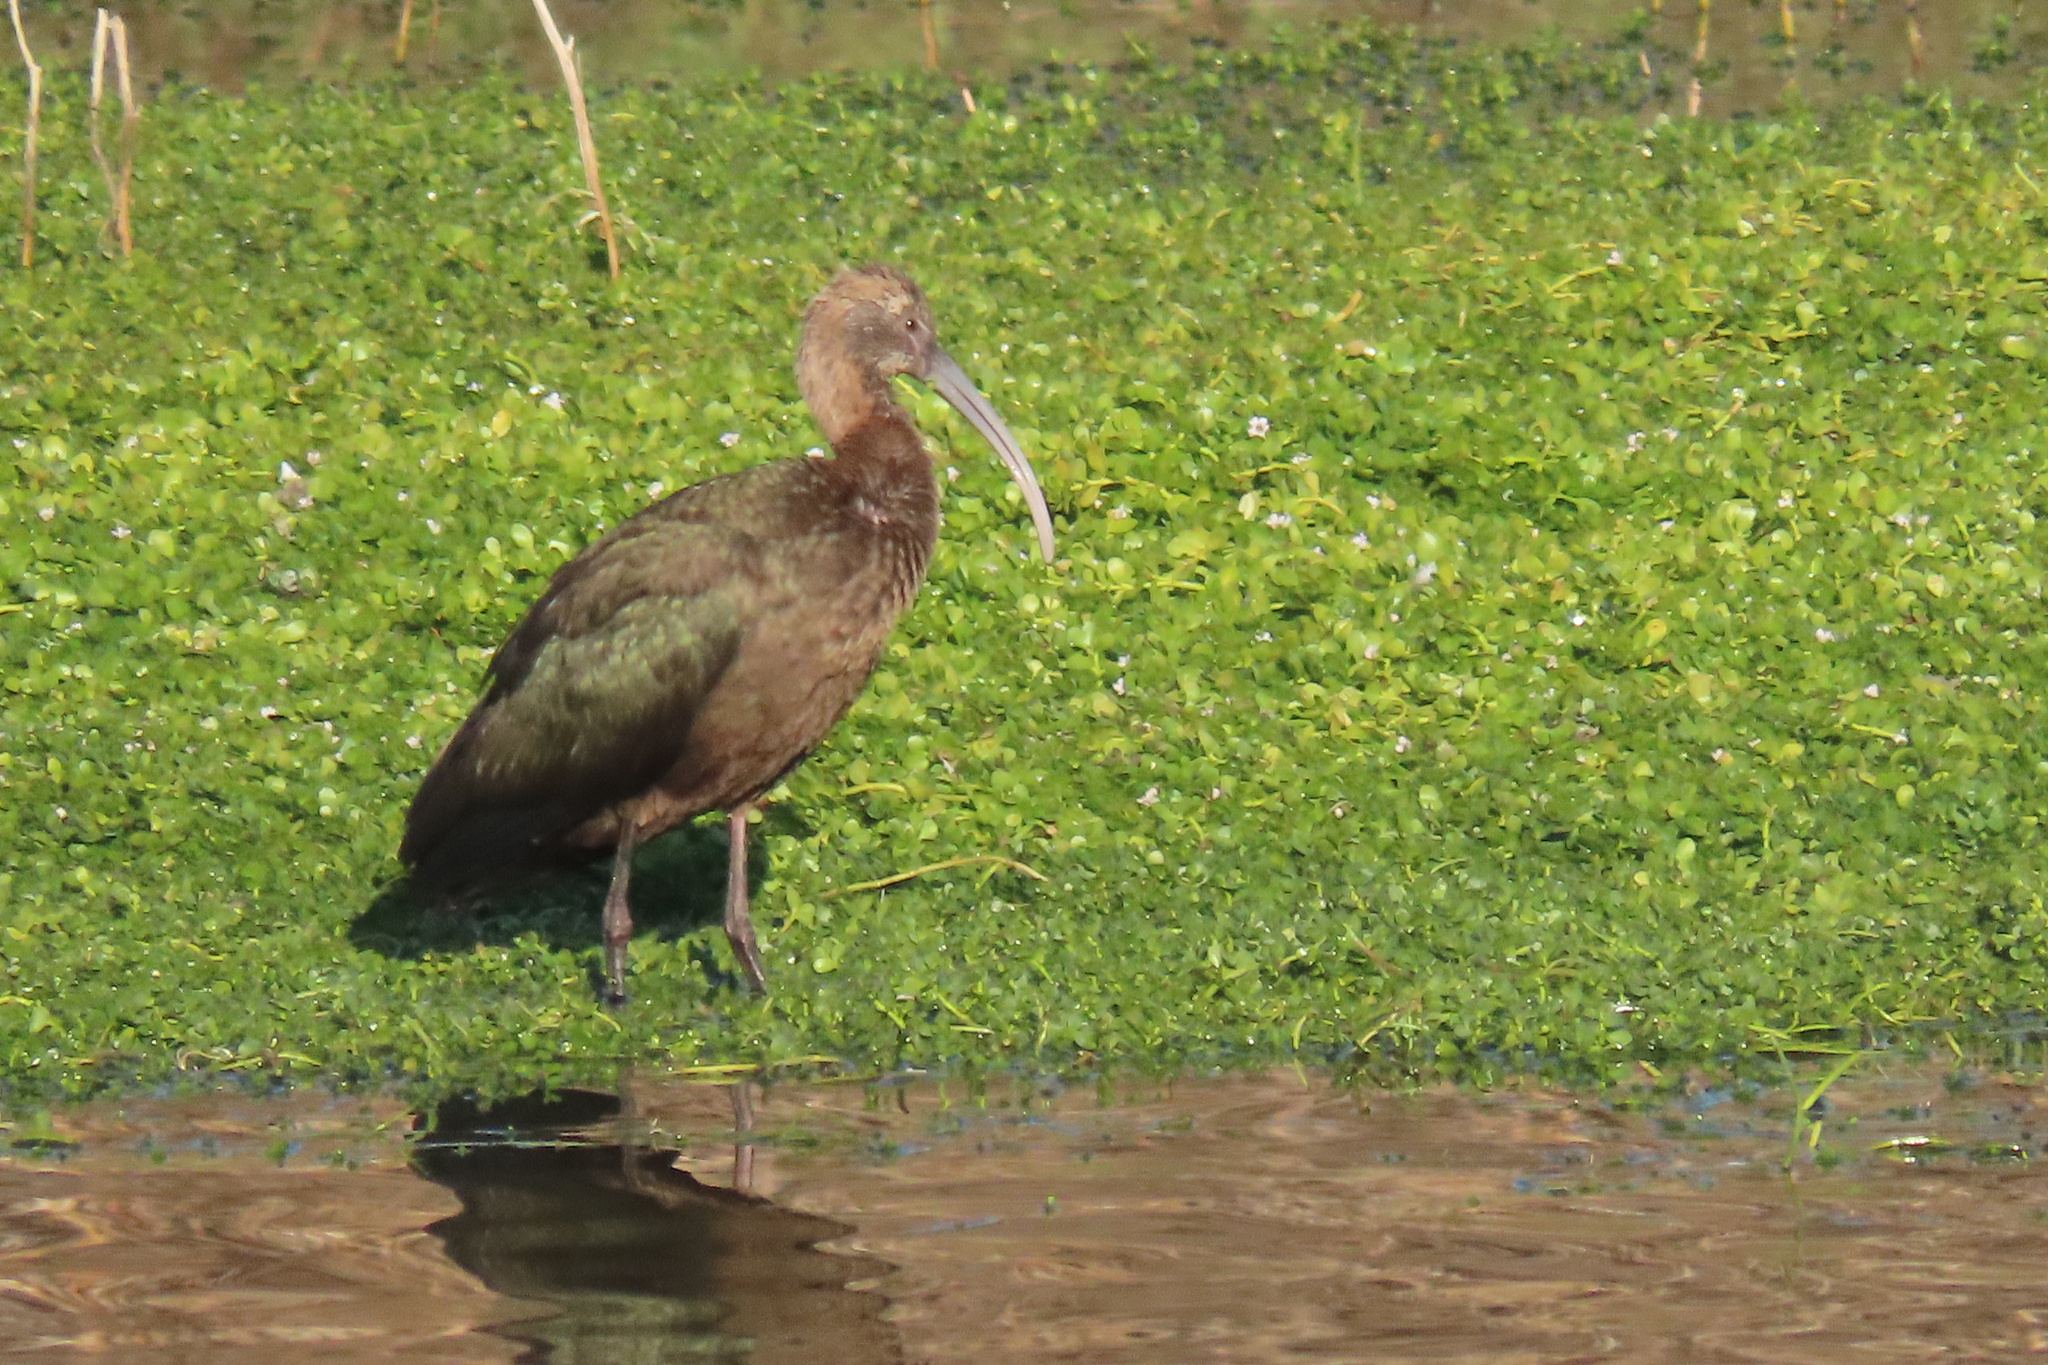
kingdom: Animalia
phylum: Chordata
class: Aves
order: Pelecaniformes
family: Threskiornithidae
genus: Plegadis
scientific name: Plegadis chihi
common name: White-faced ibis
